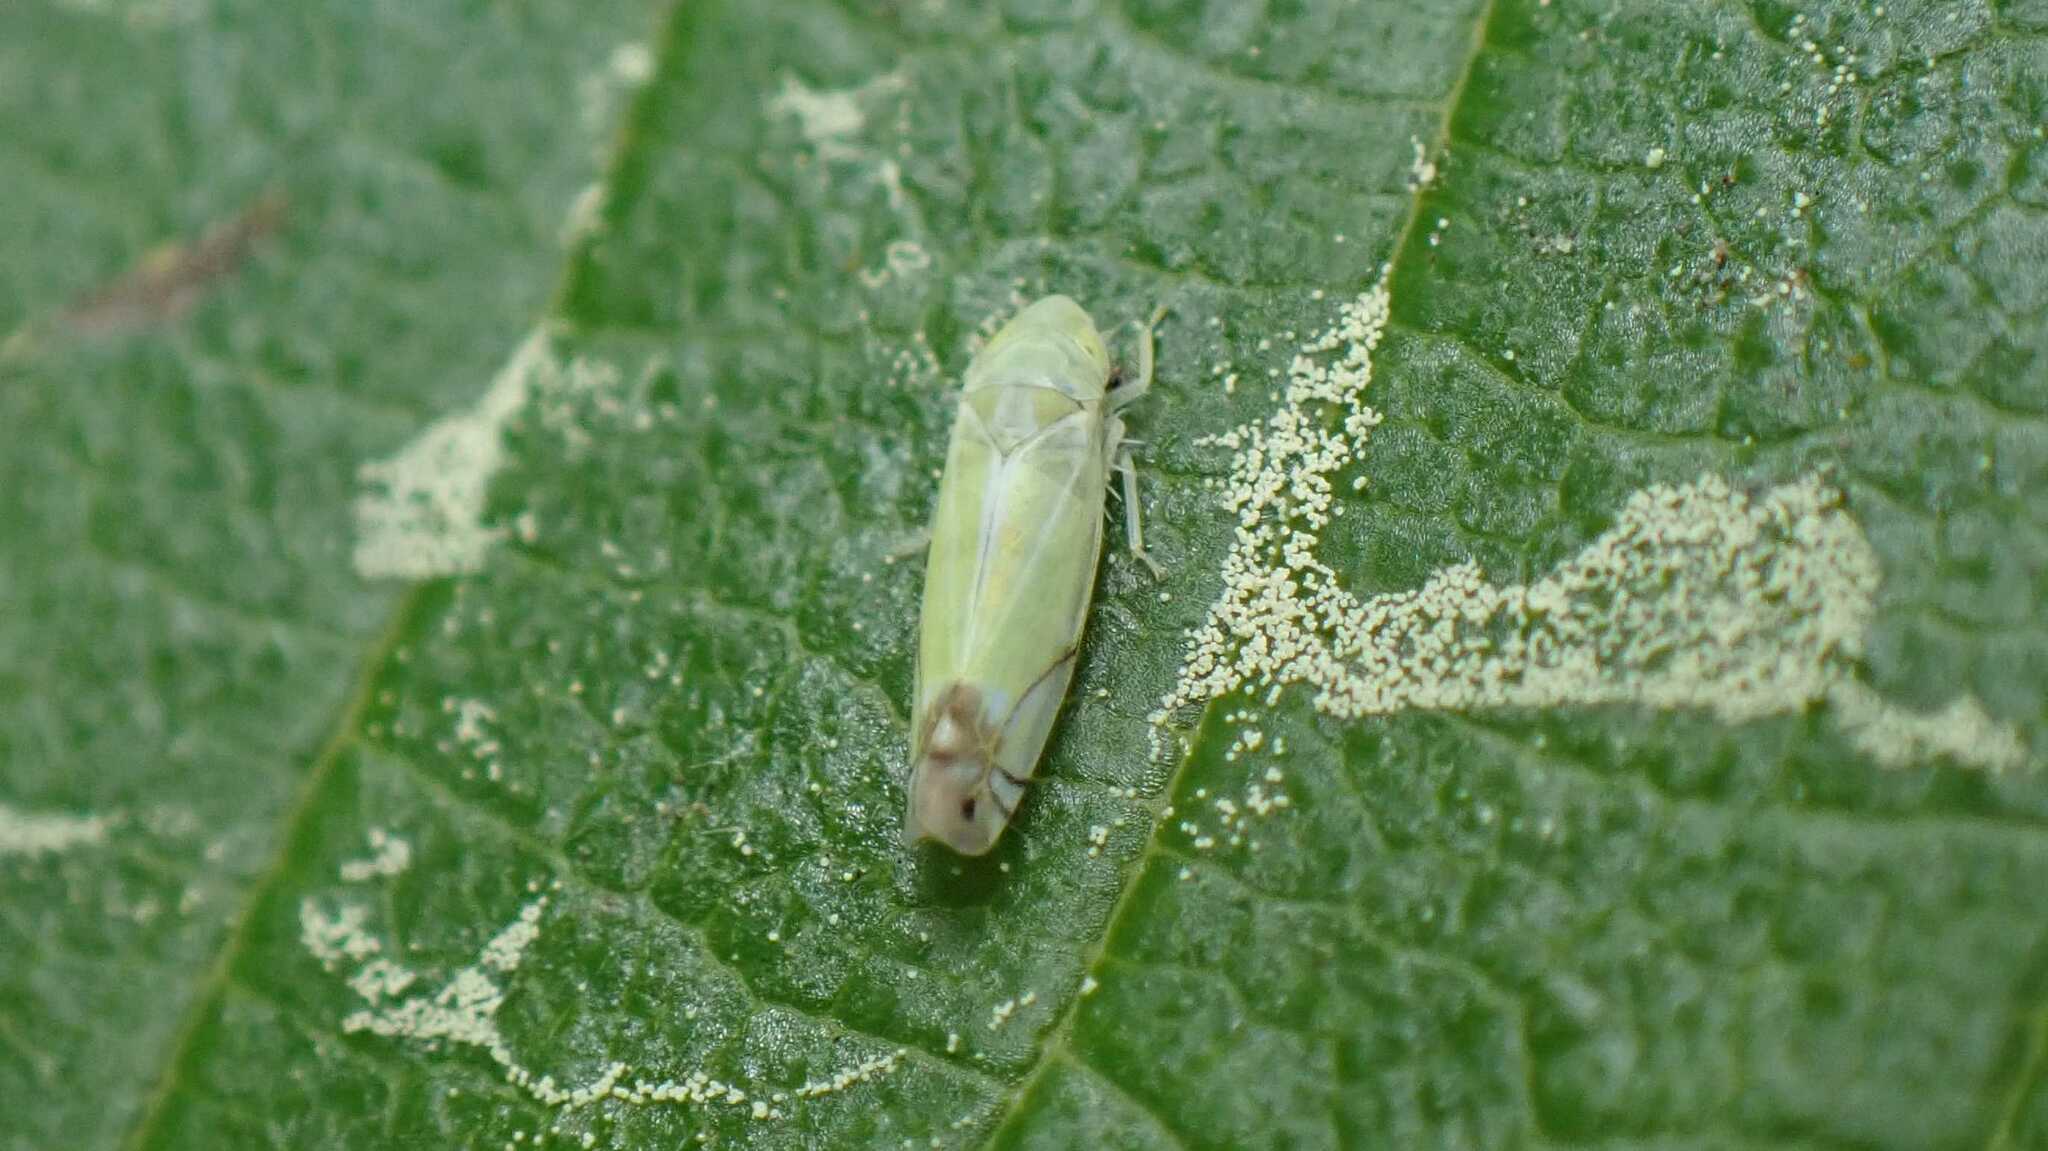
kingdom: Animalia
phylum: Arthropoda
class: Insecta
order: Hemiptera
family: Cicadellidae
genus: Zyginella
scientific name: Zyginella pulchra
